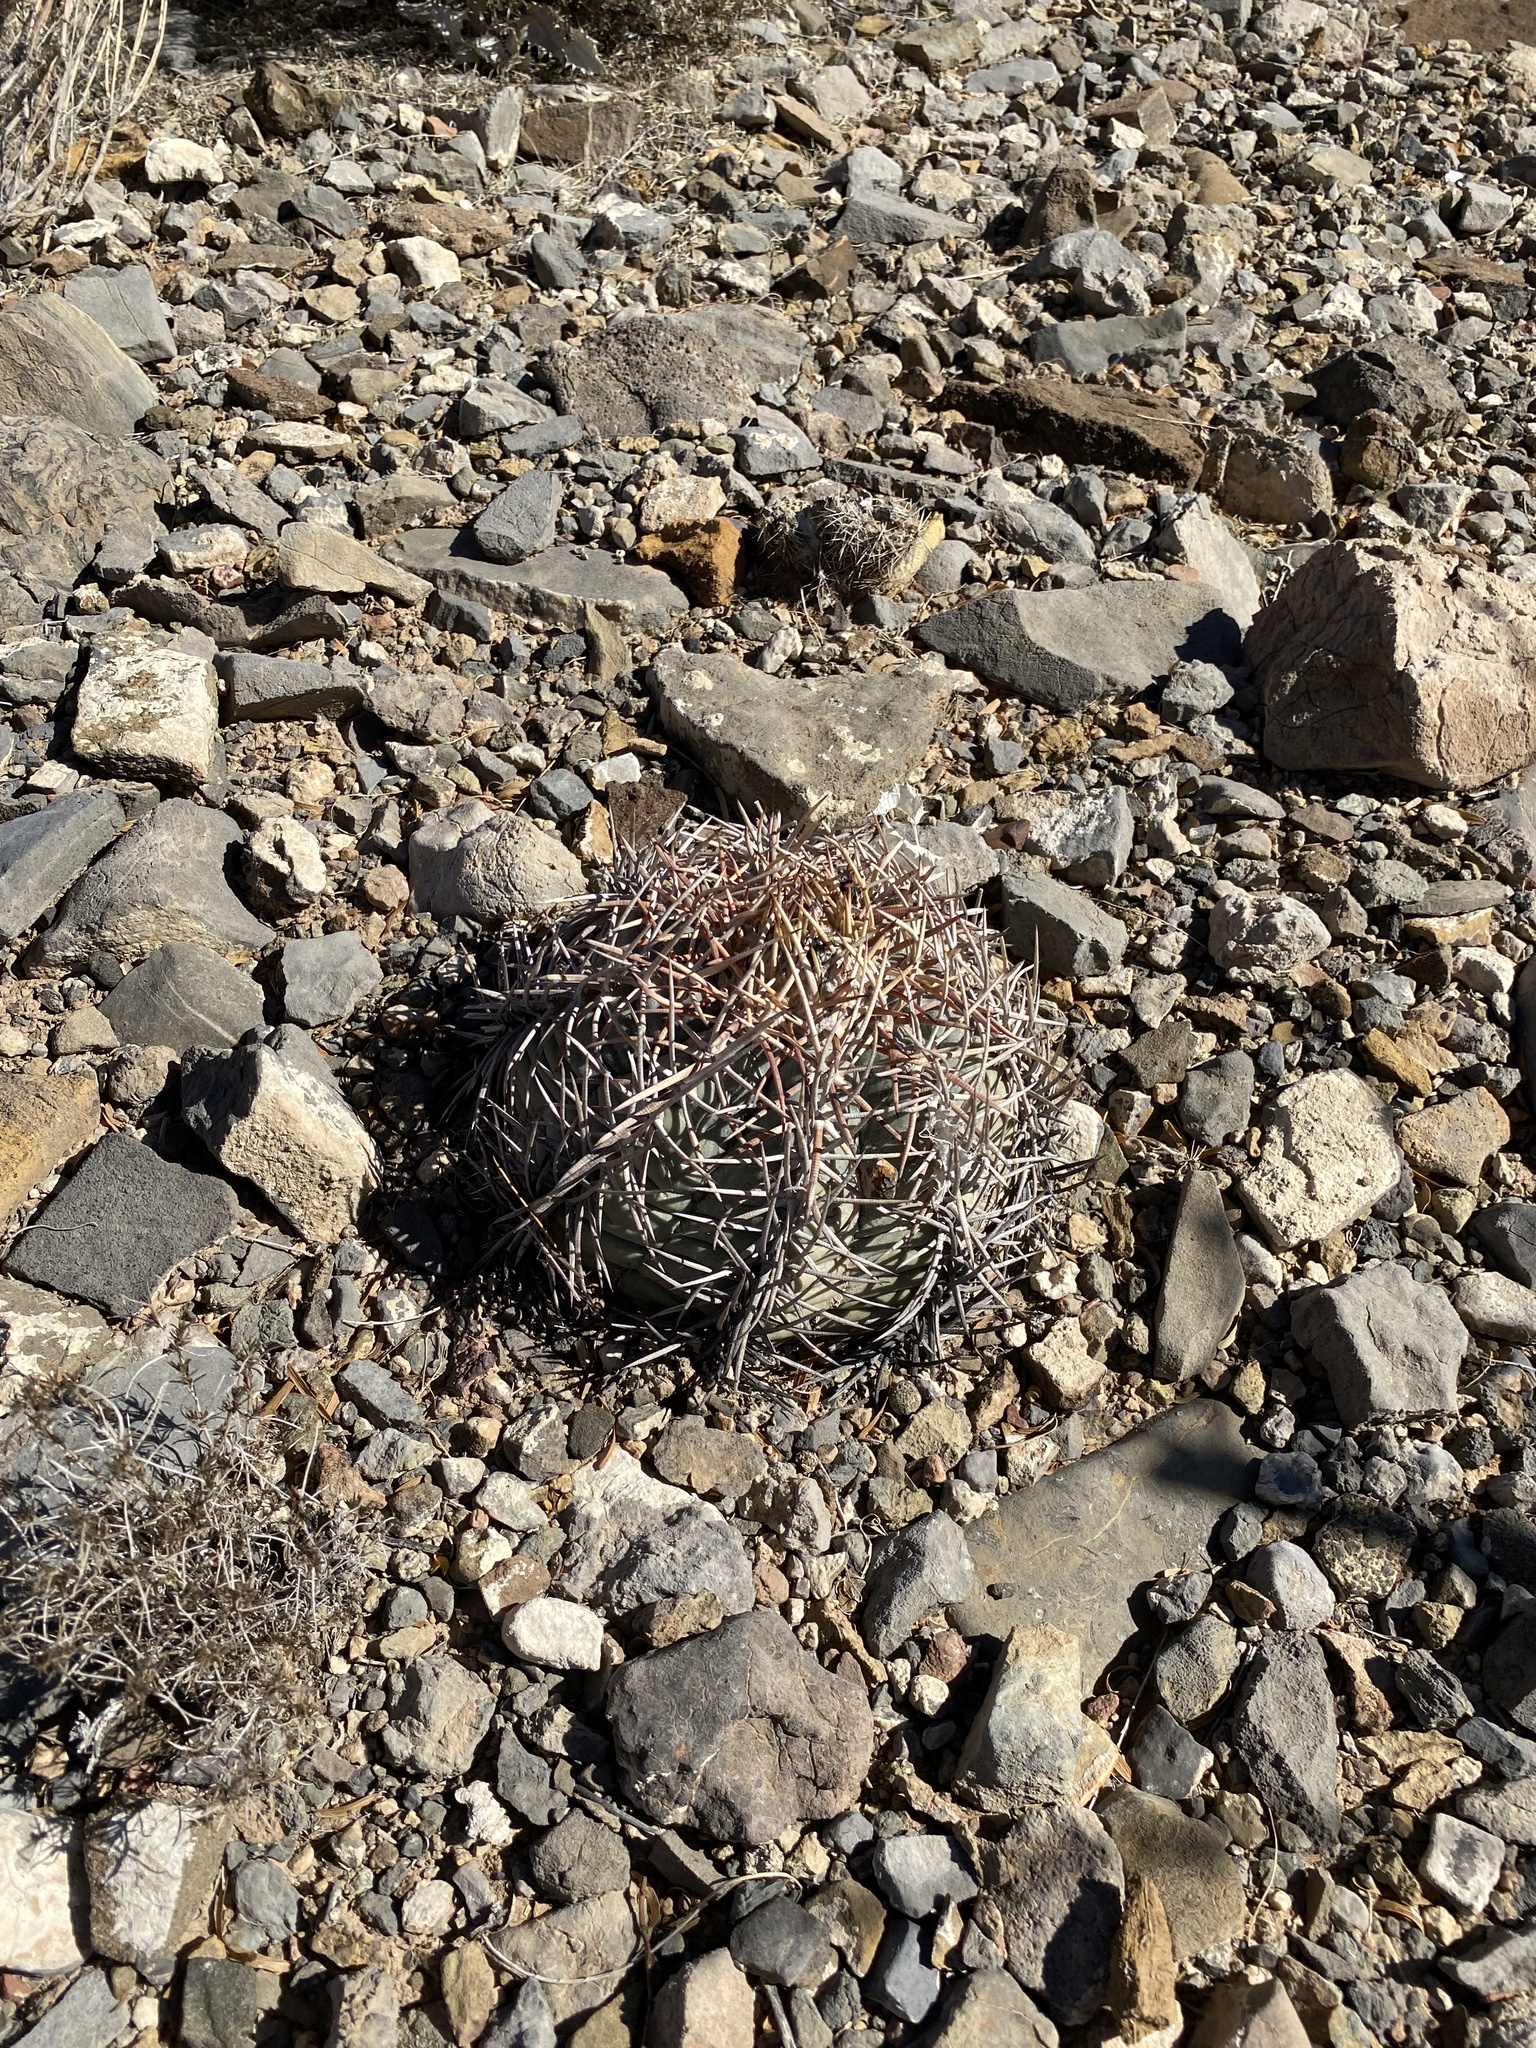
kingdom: Plantae
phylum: Tracheophyta
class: Magnoliopsida
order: Caryophyllales
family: Cactaceae
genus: Echinocactus
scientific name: Echinocactus horizonthalonius
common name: Devilshead
